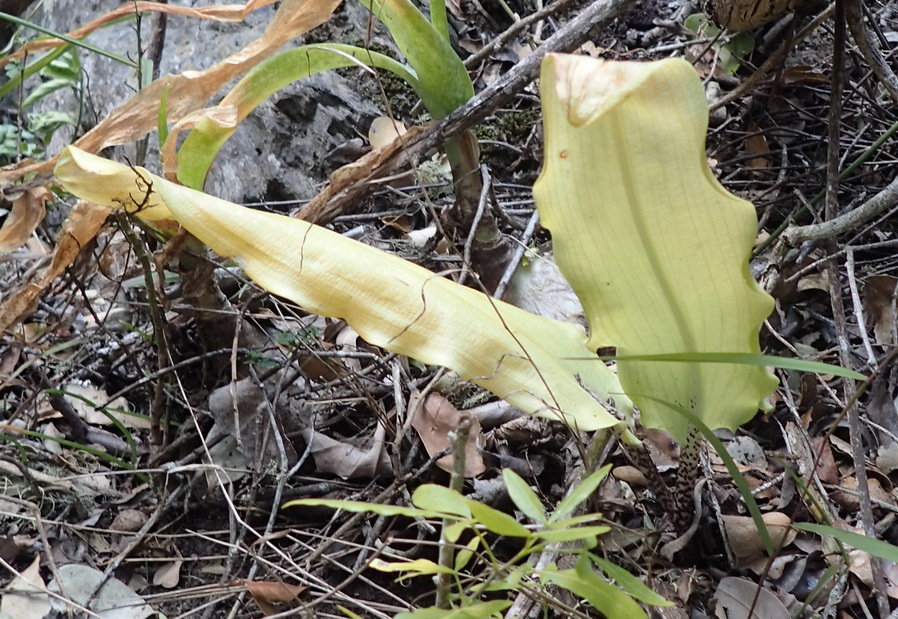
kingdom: Plantae
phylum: Tracheophyta
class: Liliopsida
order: Asparagales
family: Amaryllidaceae
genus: Scadoxus
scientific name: Scadoxus puniceus
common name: Royal-paintbrush
